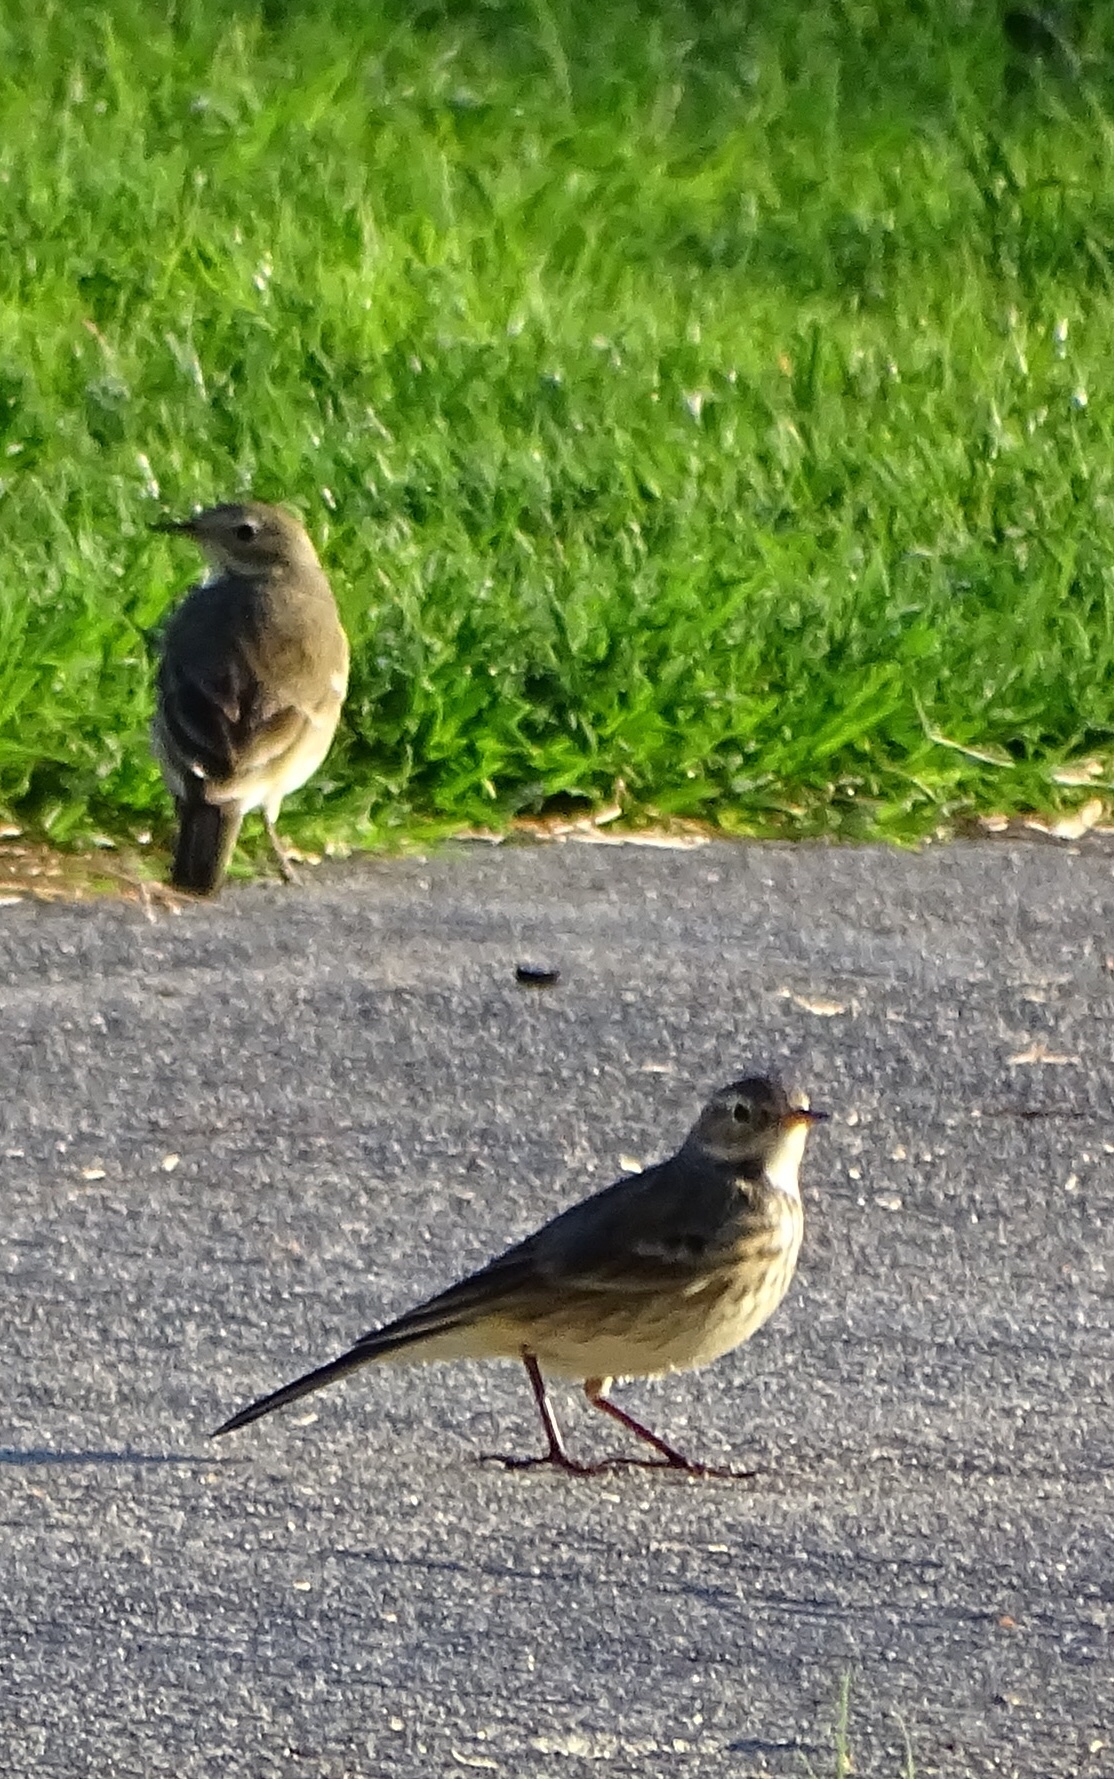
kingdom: Animalia
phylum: Chordata
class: Aves
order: Passeriformes
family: Motacillidae
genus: Anthus
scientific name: Anthus rubescens
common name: Buff-bellied pipit
